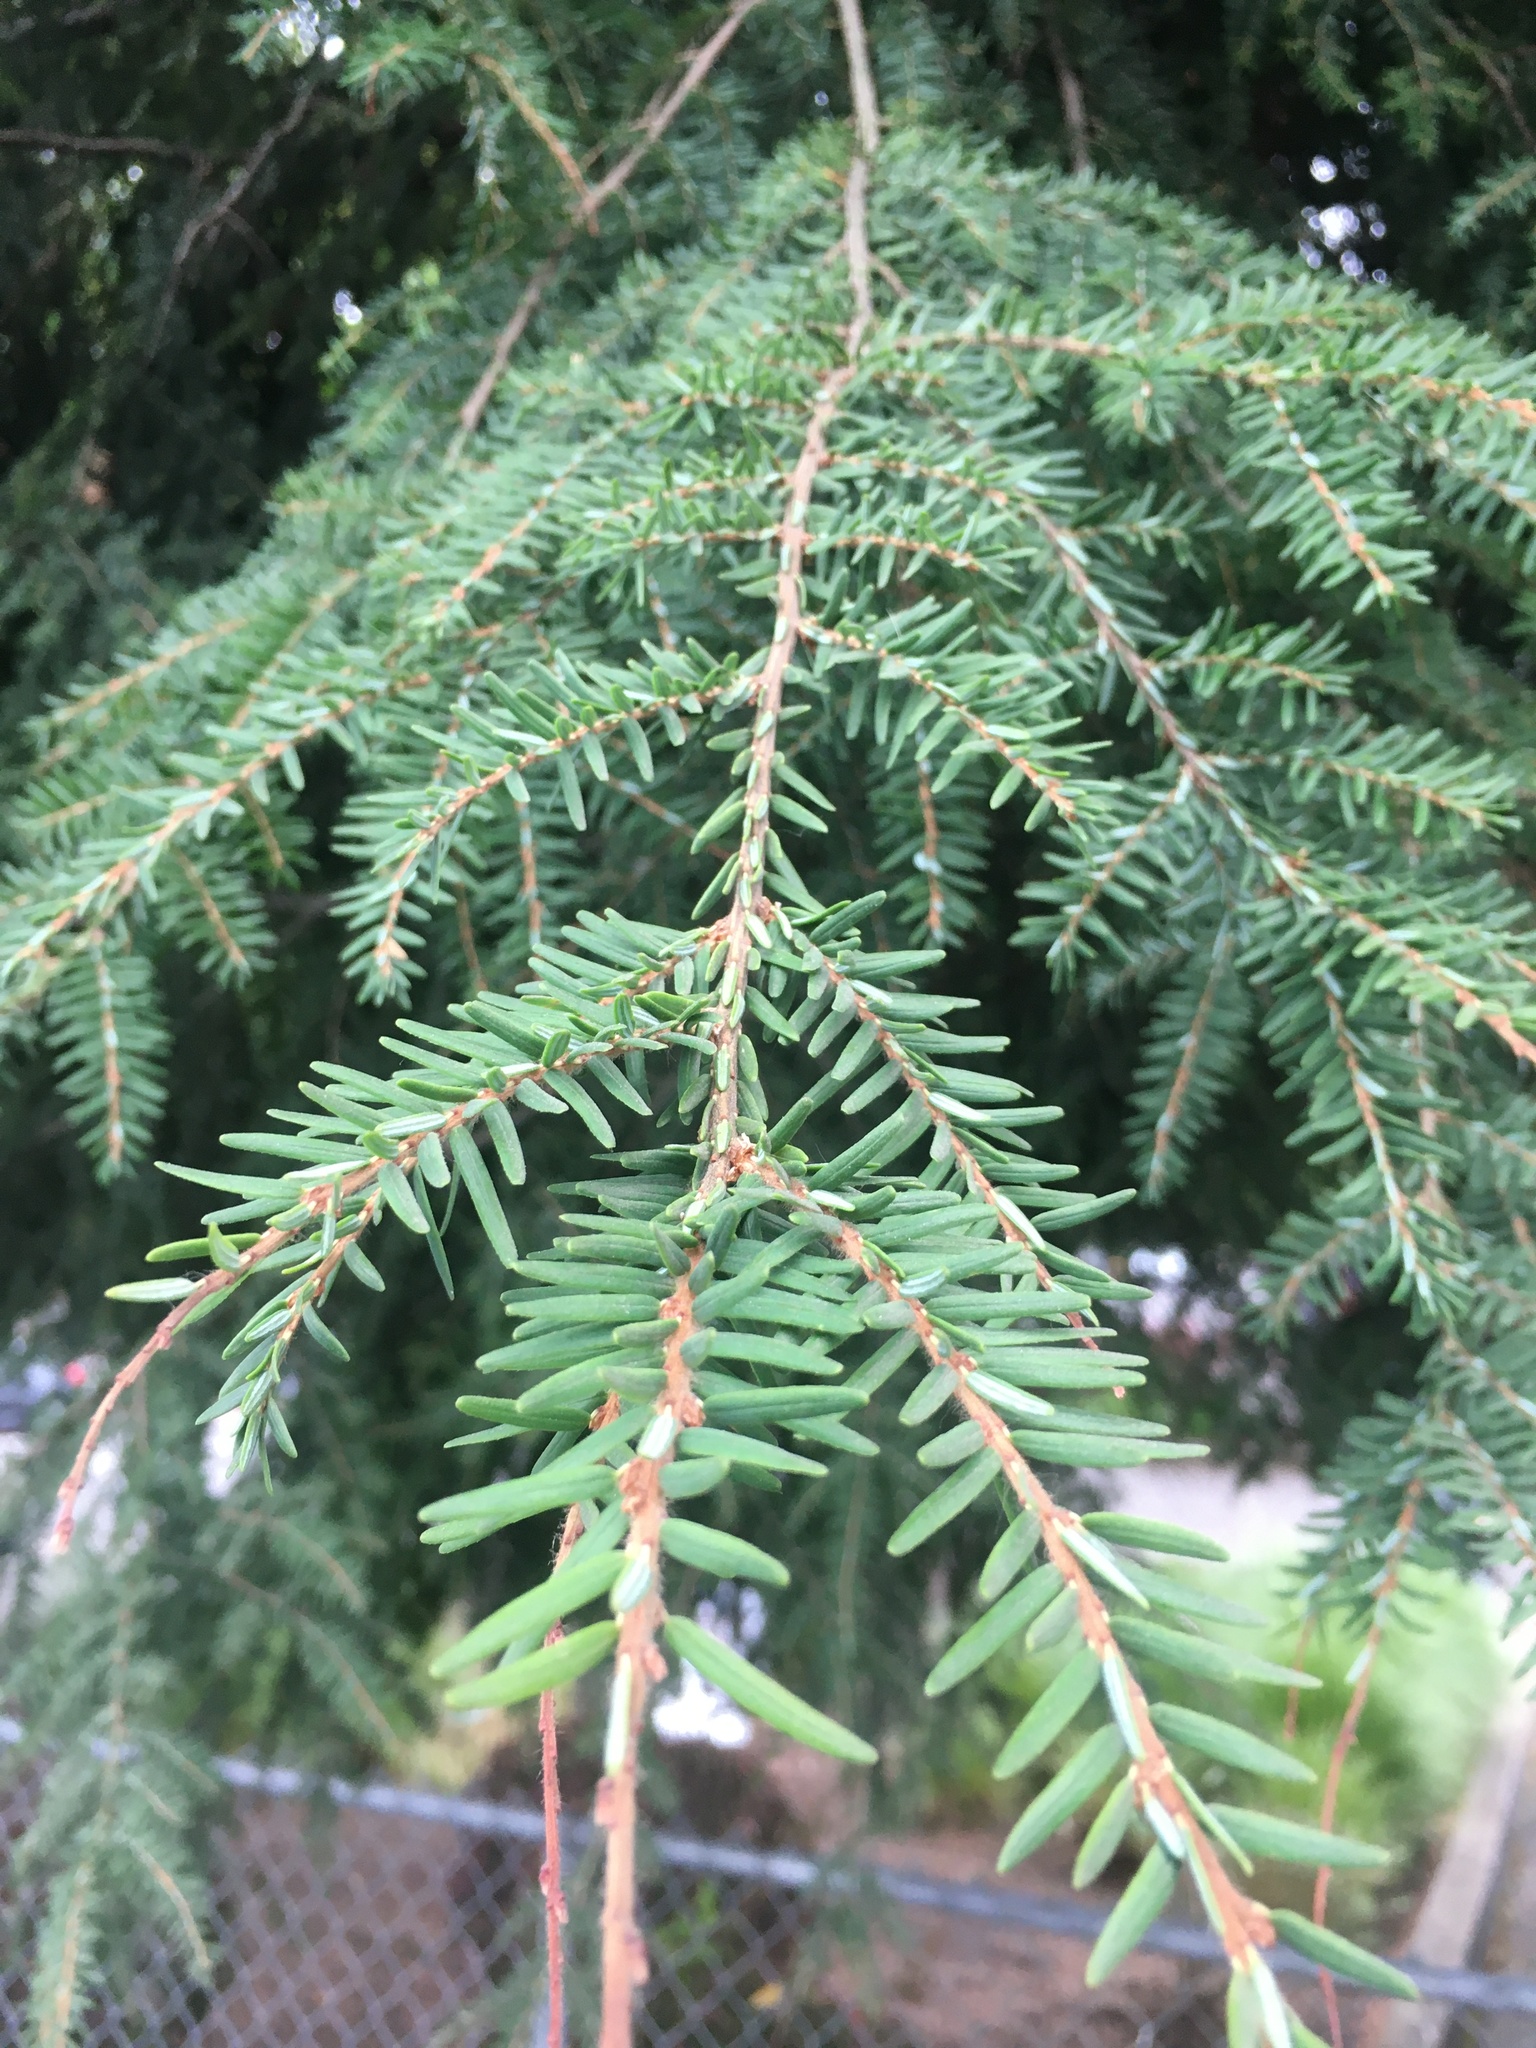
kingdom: Plantae
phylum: Tracheophyta
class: Pinopsida
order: Pinales
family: Pinaceae
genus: Tsuga
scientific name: Tsuga heterophylla
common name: Western hemlock
